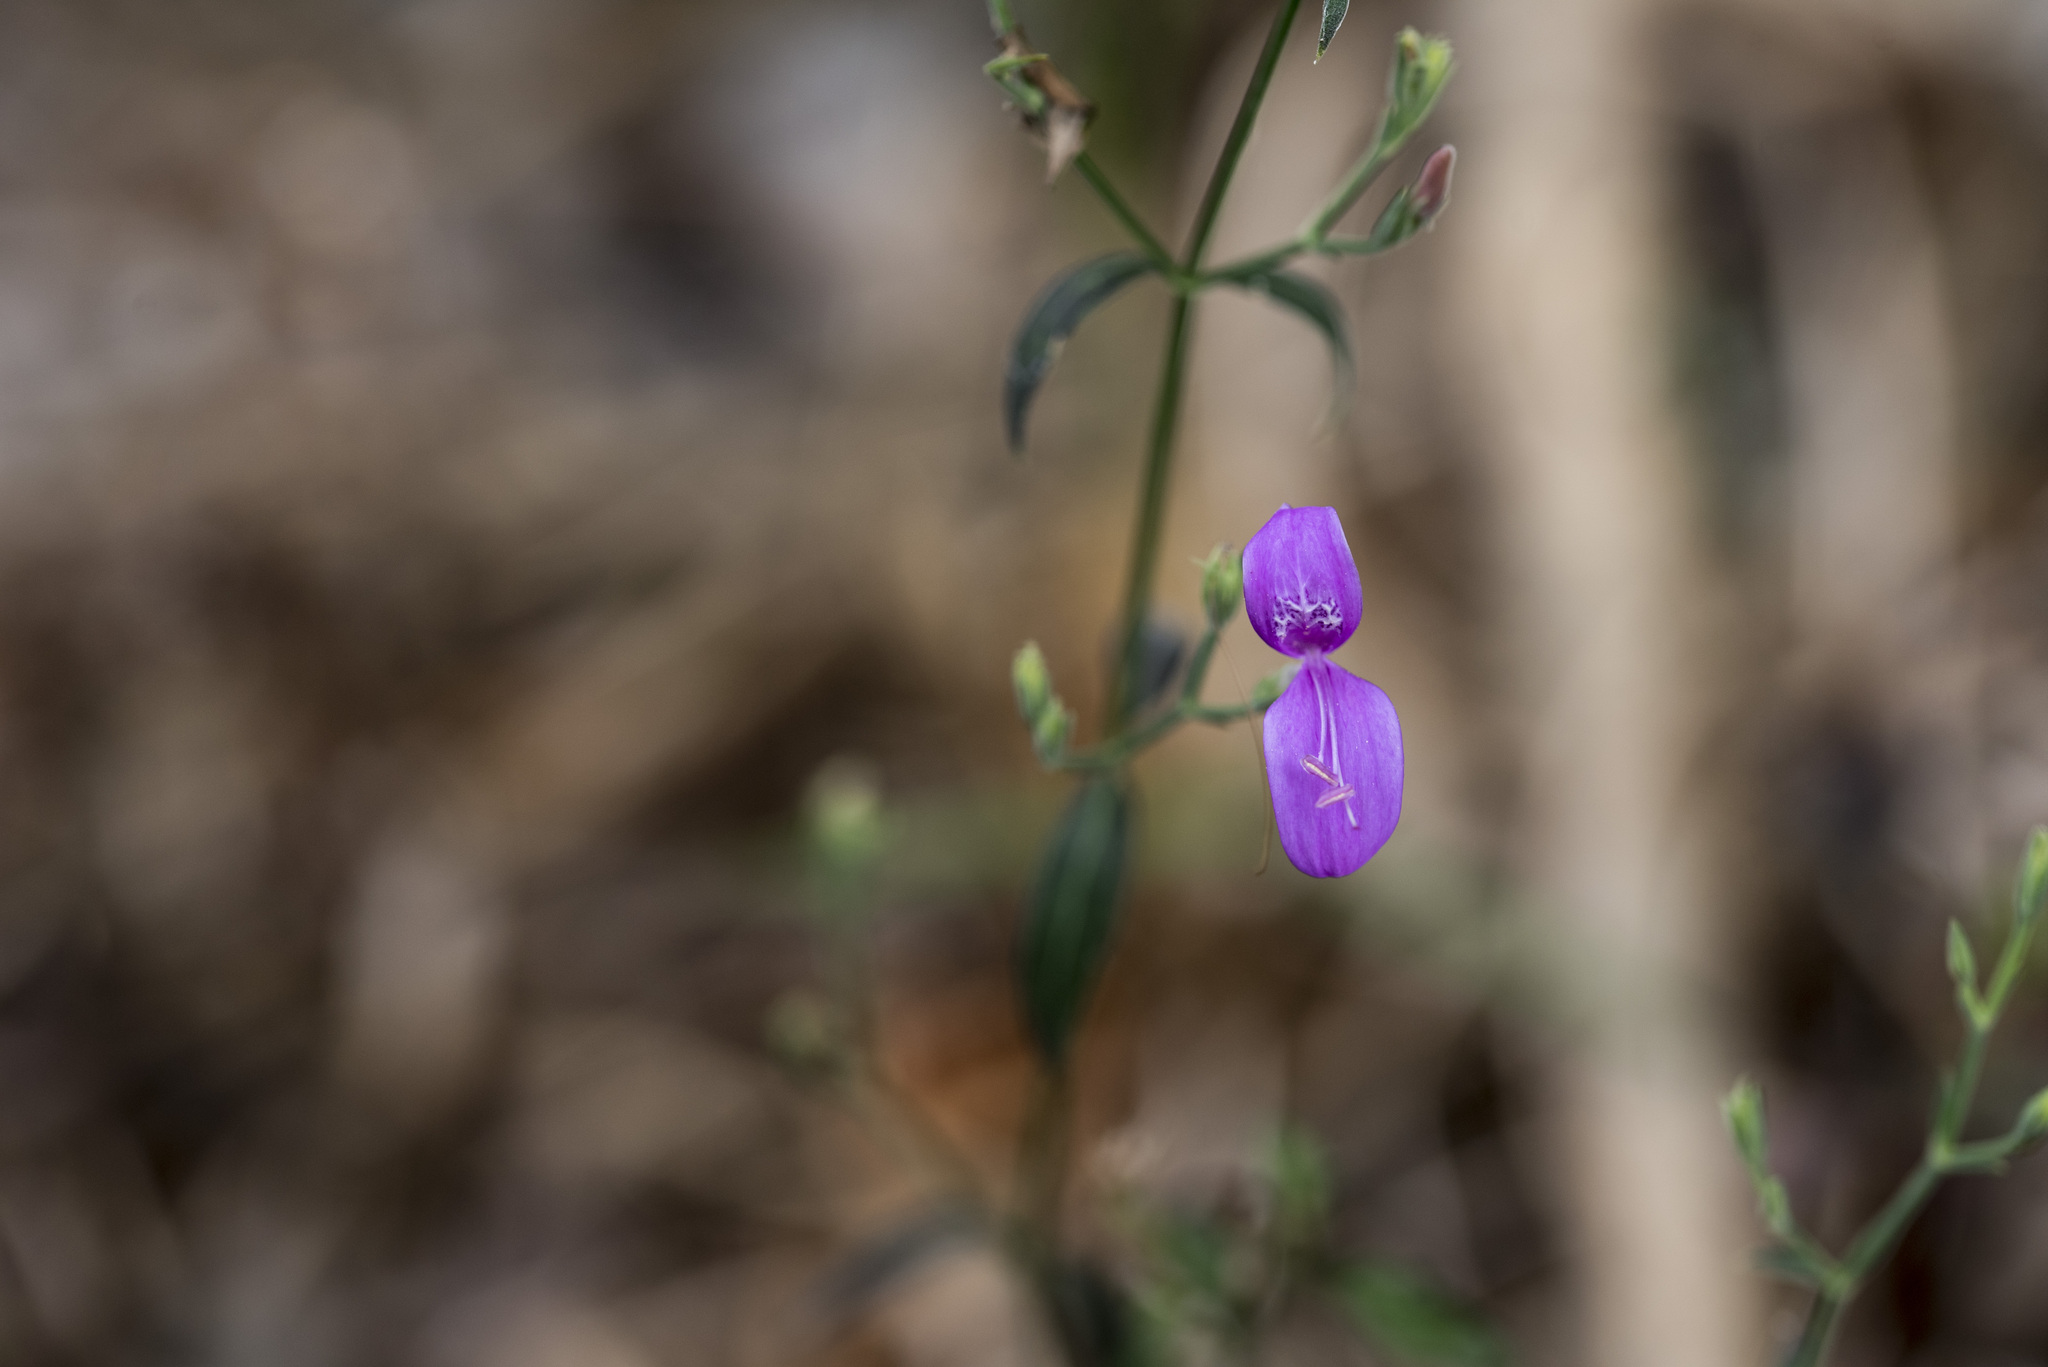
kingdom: Plantae
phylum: Tracheophyta
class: Magnoliopsida
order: Lamiales
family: Acanthaceae
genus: Hypoestes
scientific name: Hypoestes cumingiana
